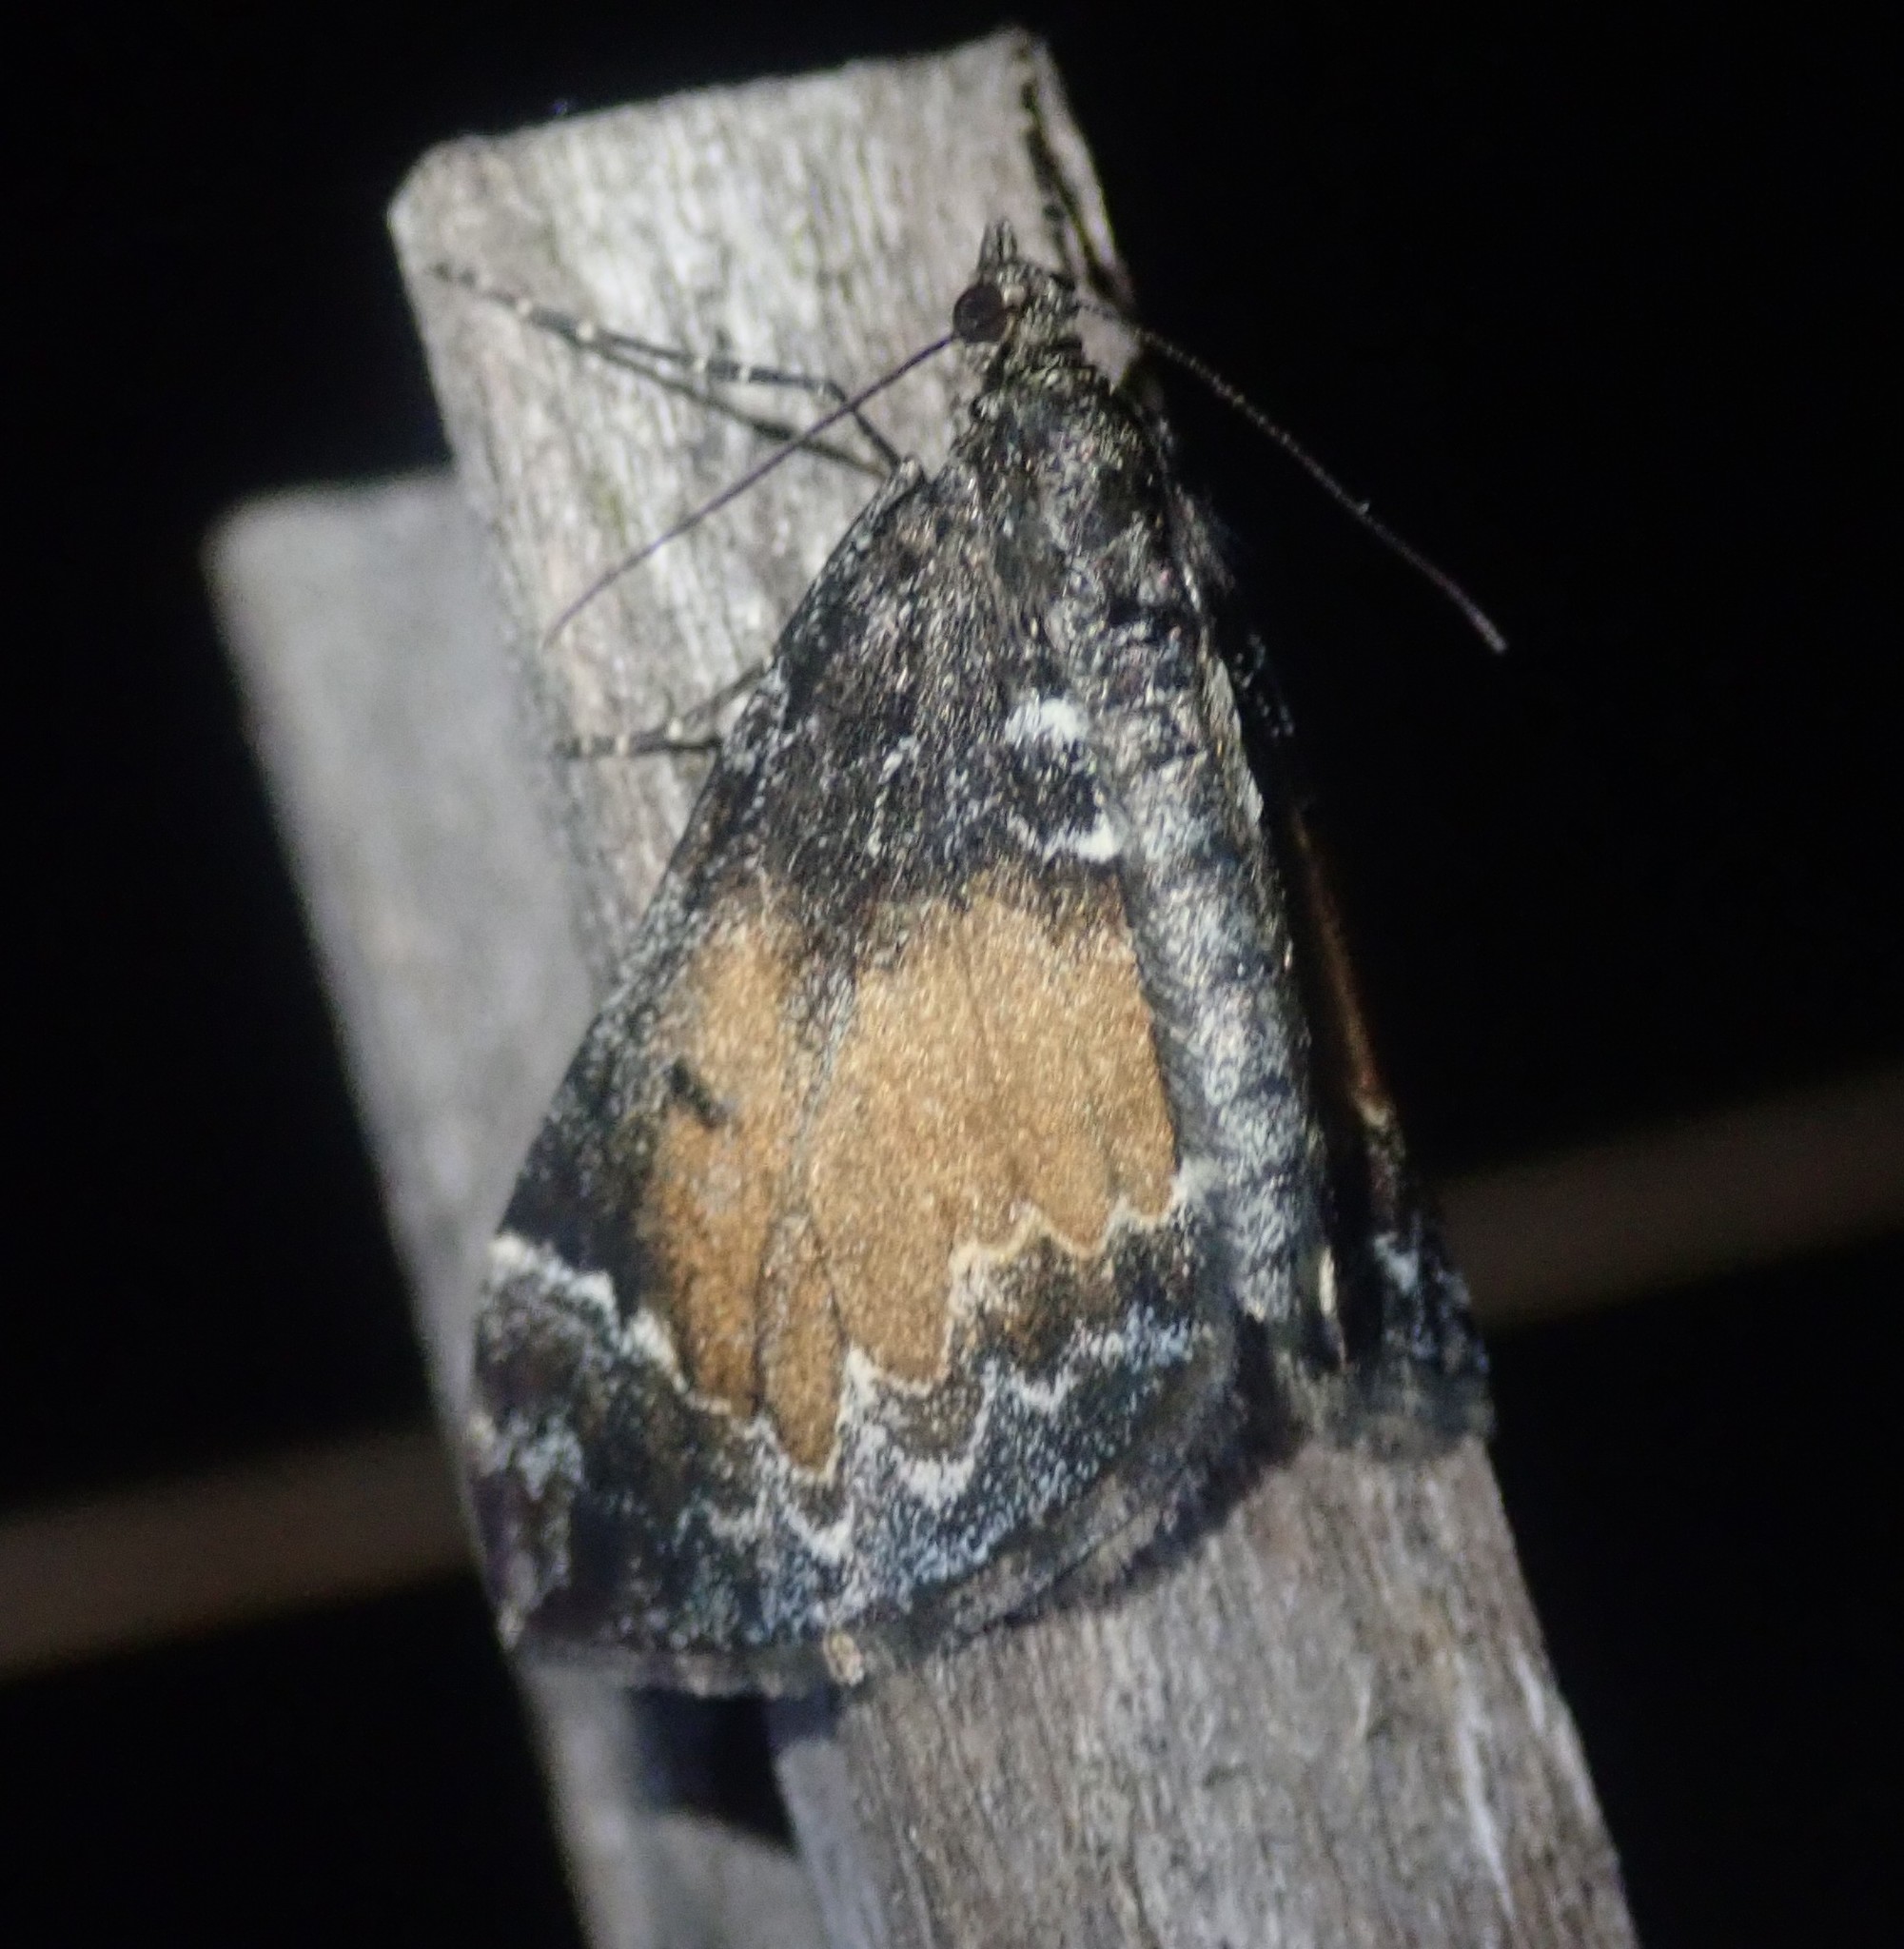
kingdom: Animalia
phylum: Arthropoda
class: Insecta
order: Lepidoptera
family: Geometridae
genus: Dysstroma
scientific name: Dysstroma truncata
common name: Common marbled carpet
